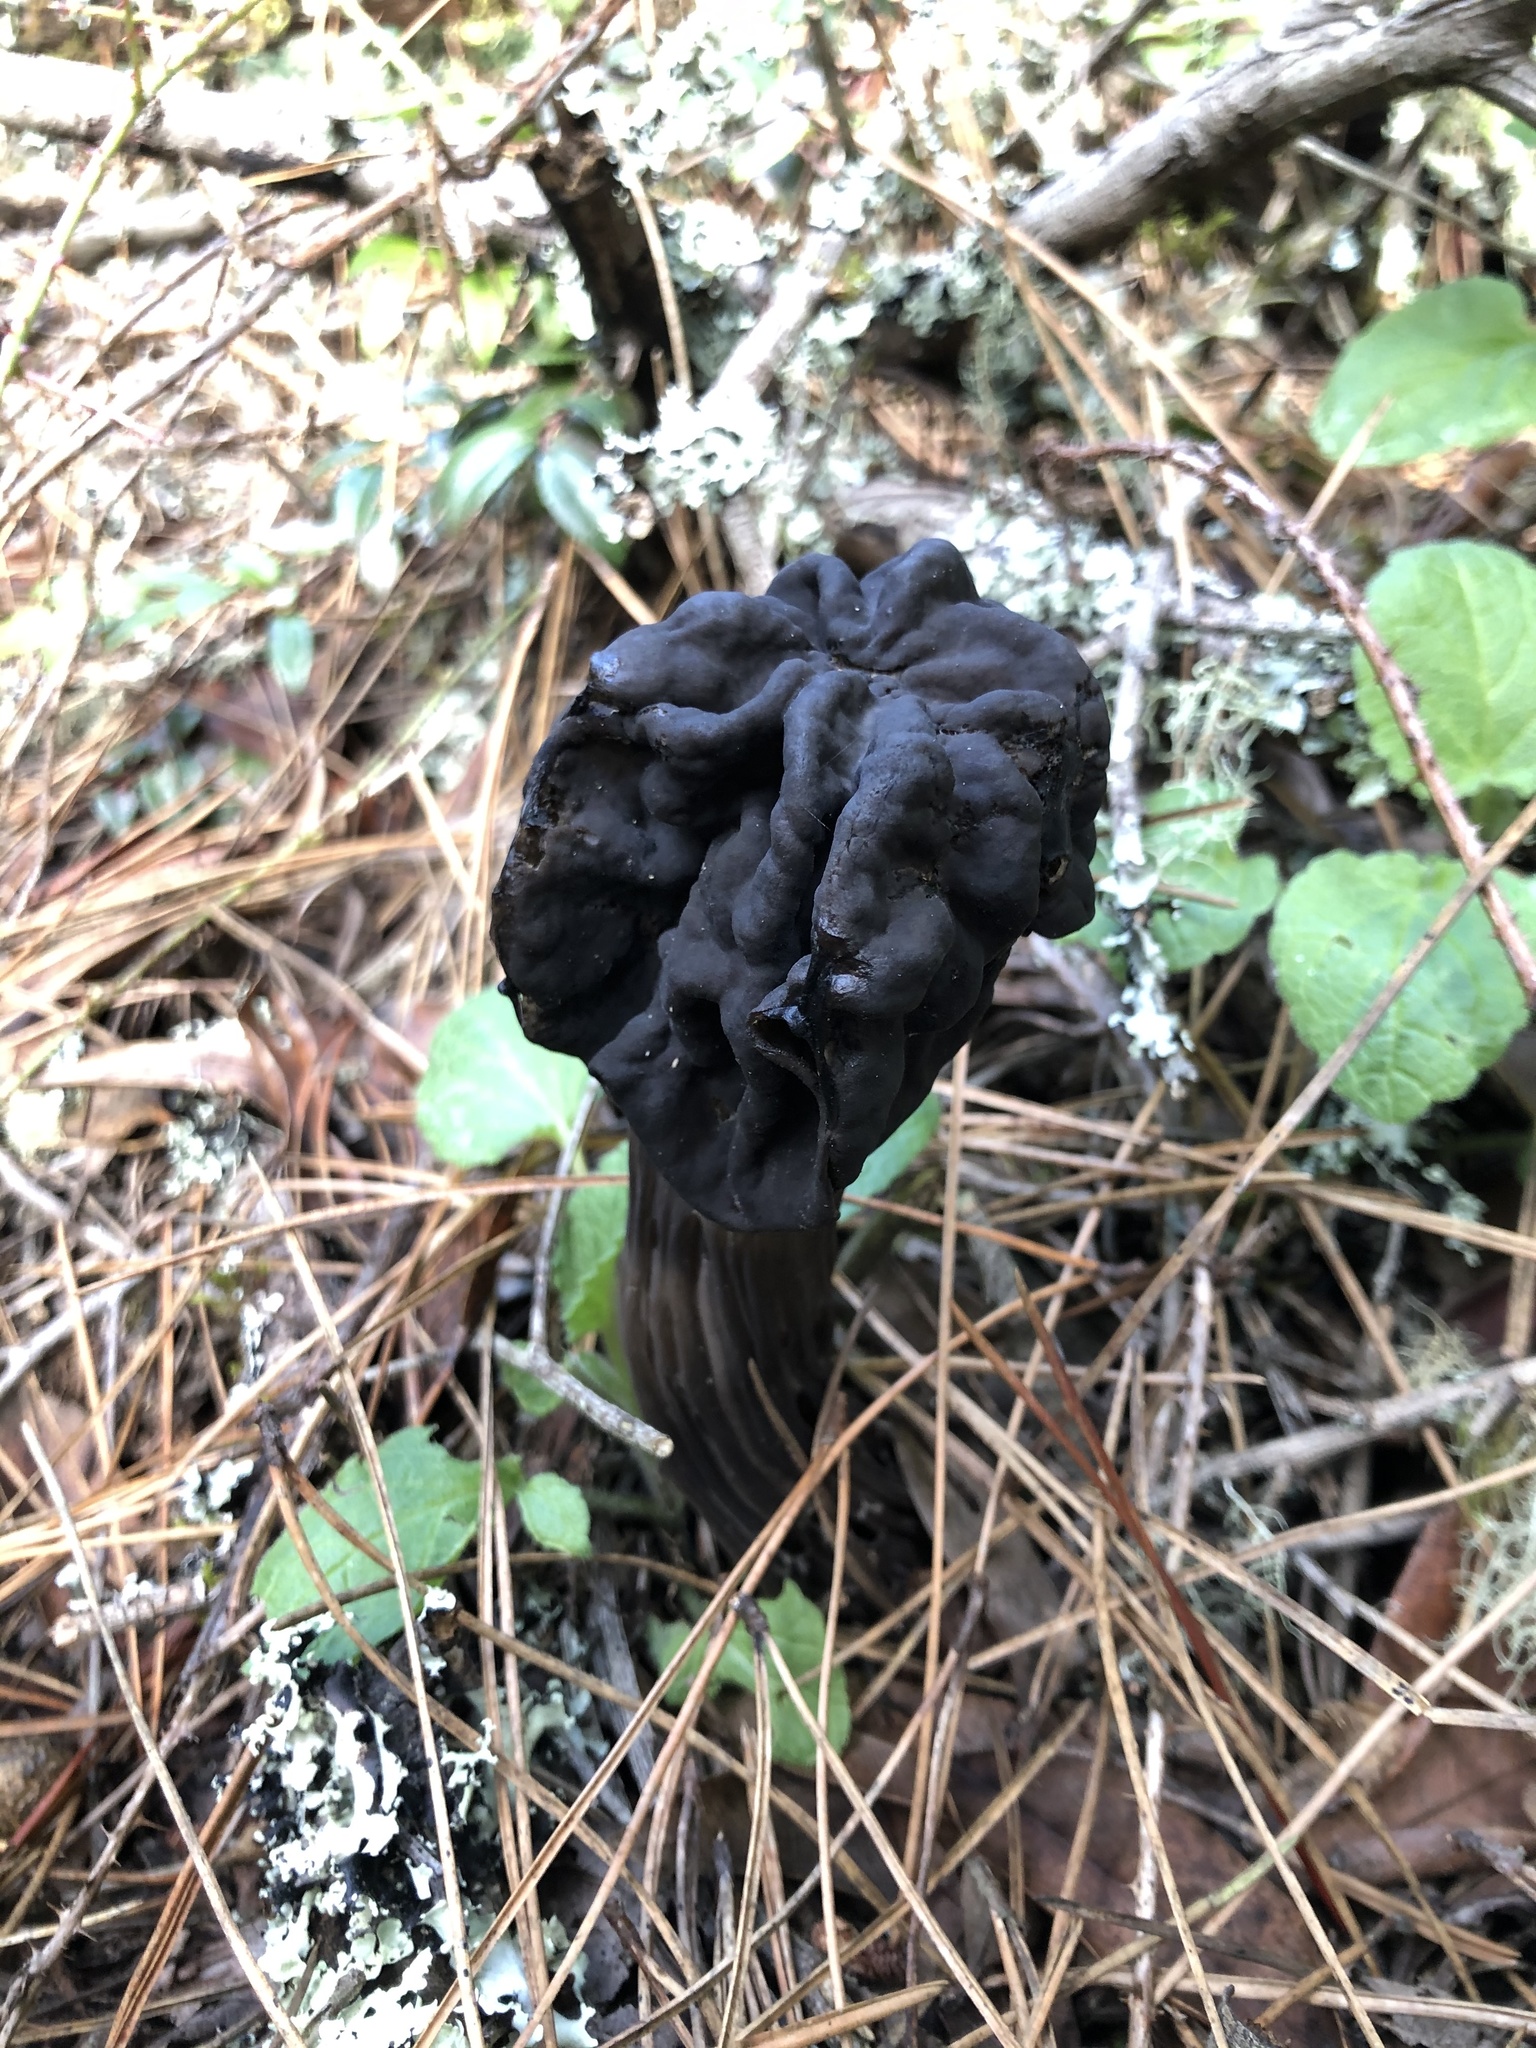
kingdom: Fungi
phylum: Ascomycota
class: Pezizomycetes
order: Pezizales
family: Helvellaceae
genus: Helvella
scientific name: Helvella vespertina
